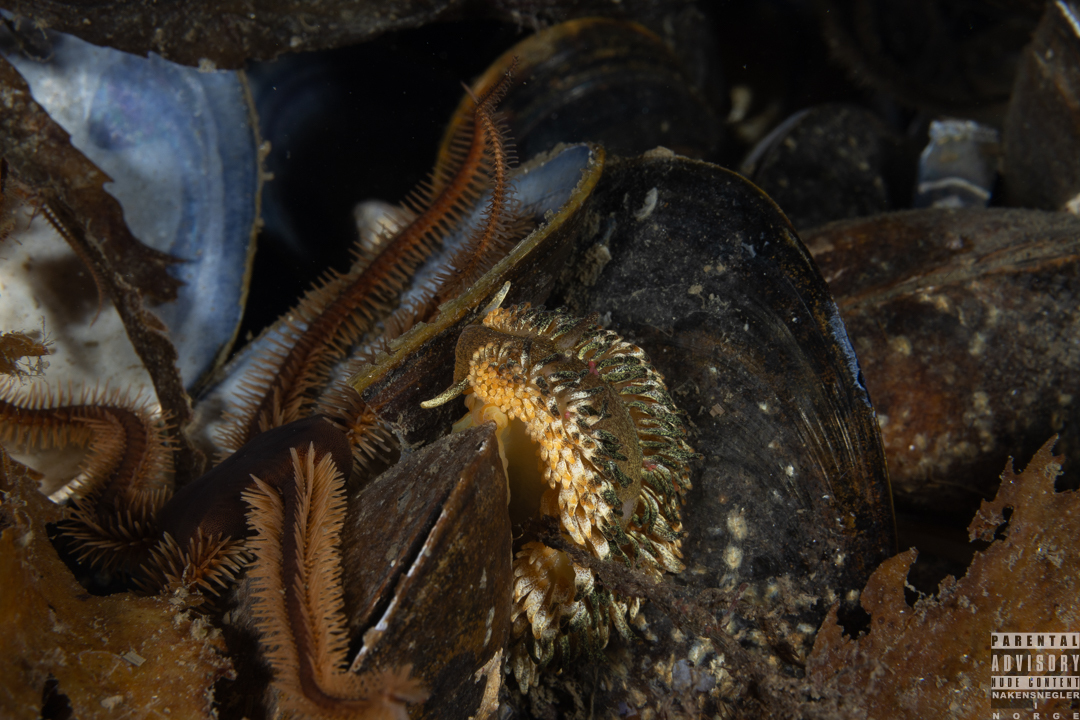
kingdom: Animalia
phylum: Mollusca
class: Gastropoda
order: Nudibranchia
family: Aeolidiidae
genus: Aeolidia
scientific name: Aeolidia papillosa
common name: Common grey sea slug
